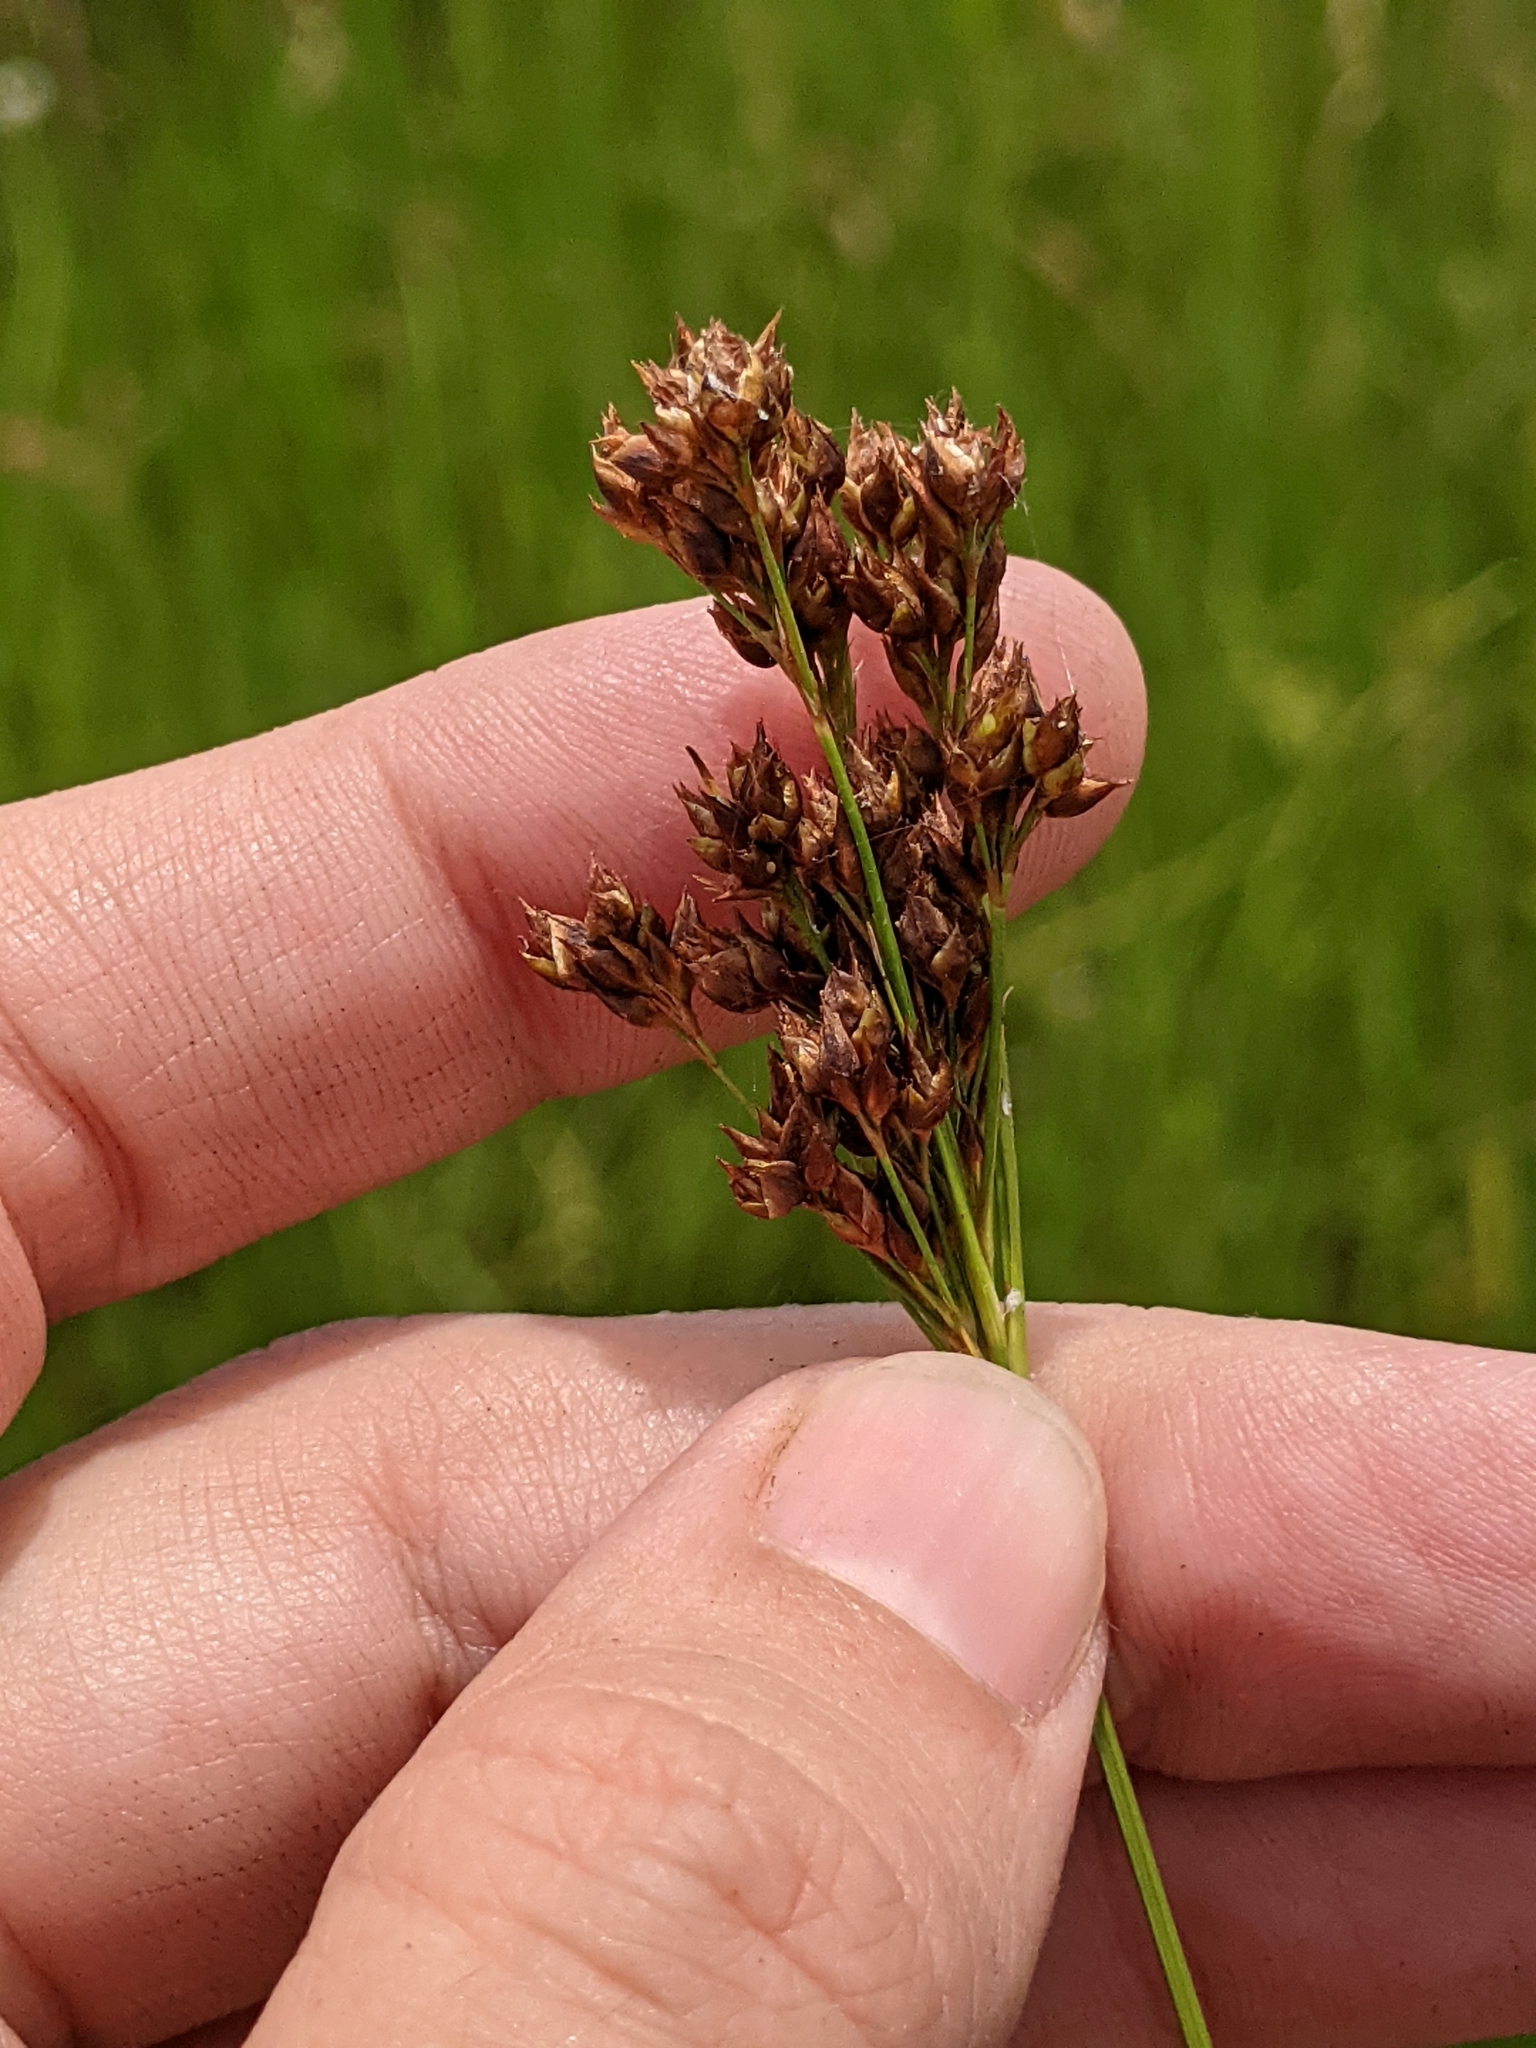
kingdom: Plantae
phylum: Tracheophyta
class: Liliopsida
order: Poales
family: Cyperaceae
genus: Rhynchospora
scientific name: Rhynchospora caduca
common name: Anglestem beaksedge
